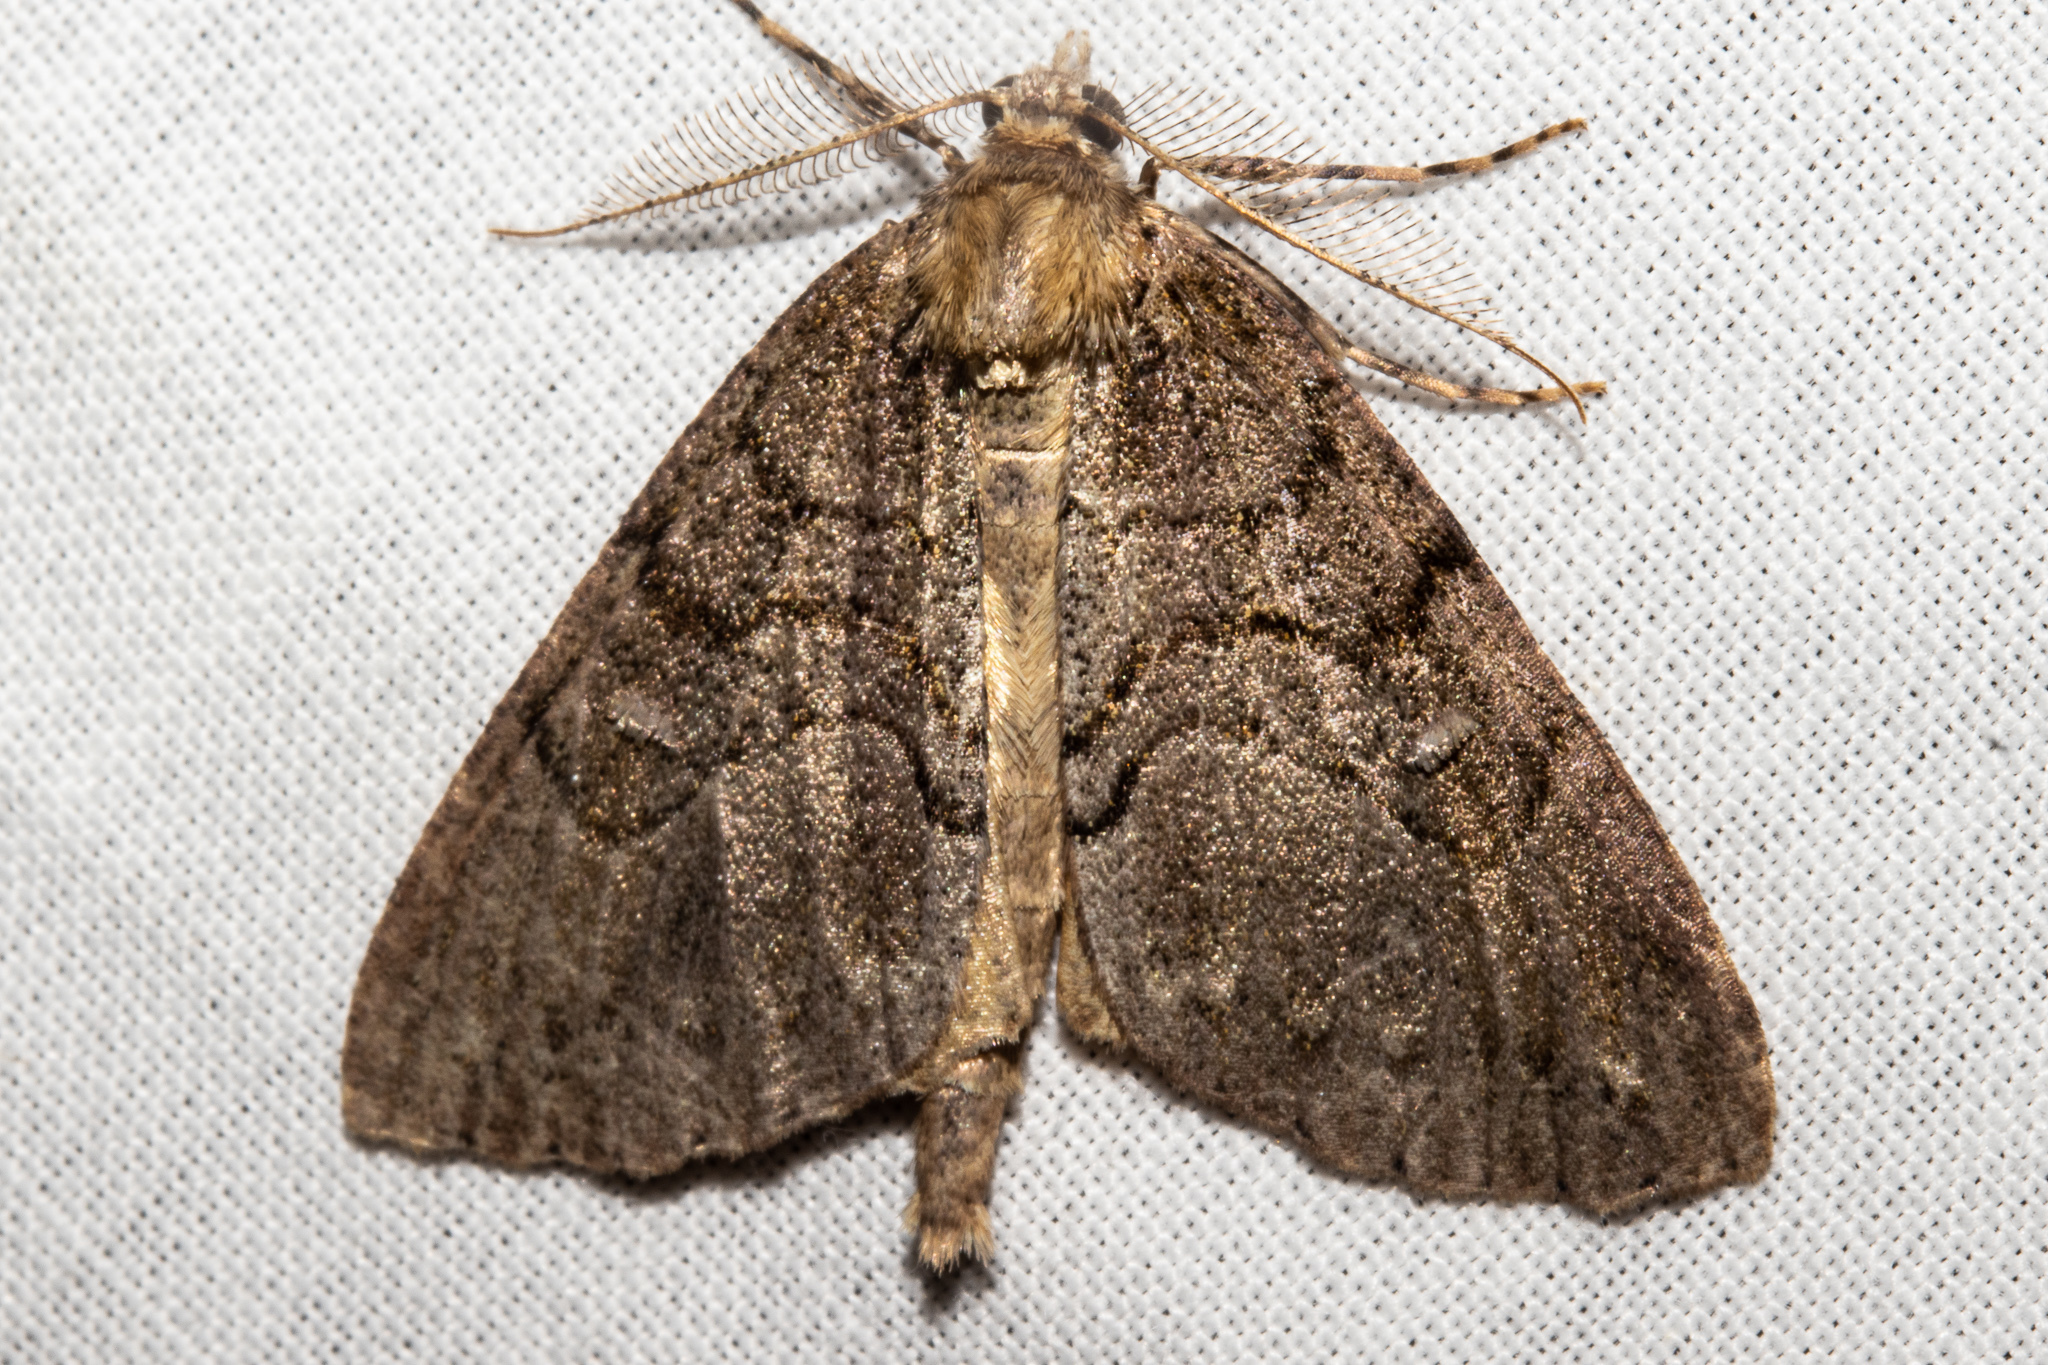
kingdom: Animalia
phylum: Arthropoda
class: Insecta
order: Lepidoptera
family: Geometridae
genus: Pseudocoremia
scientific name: Pseudocoremia suavis
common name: Common forest looper
